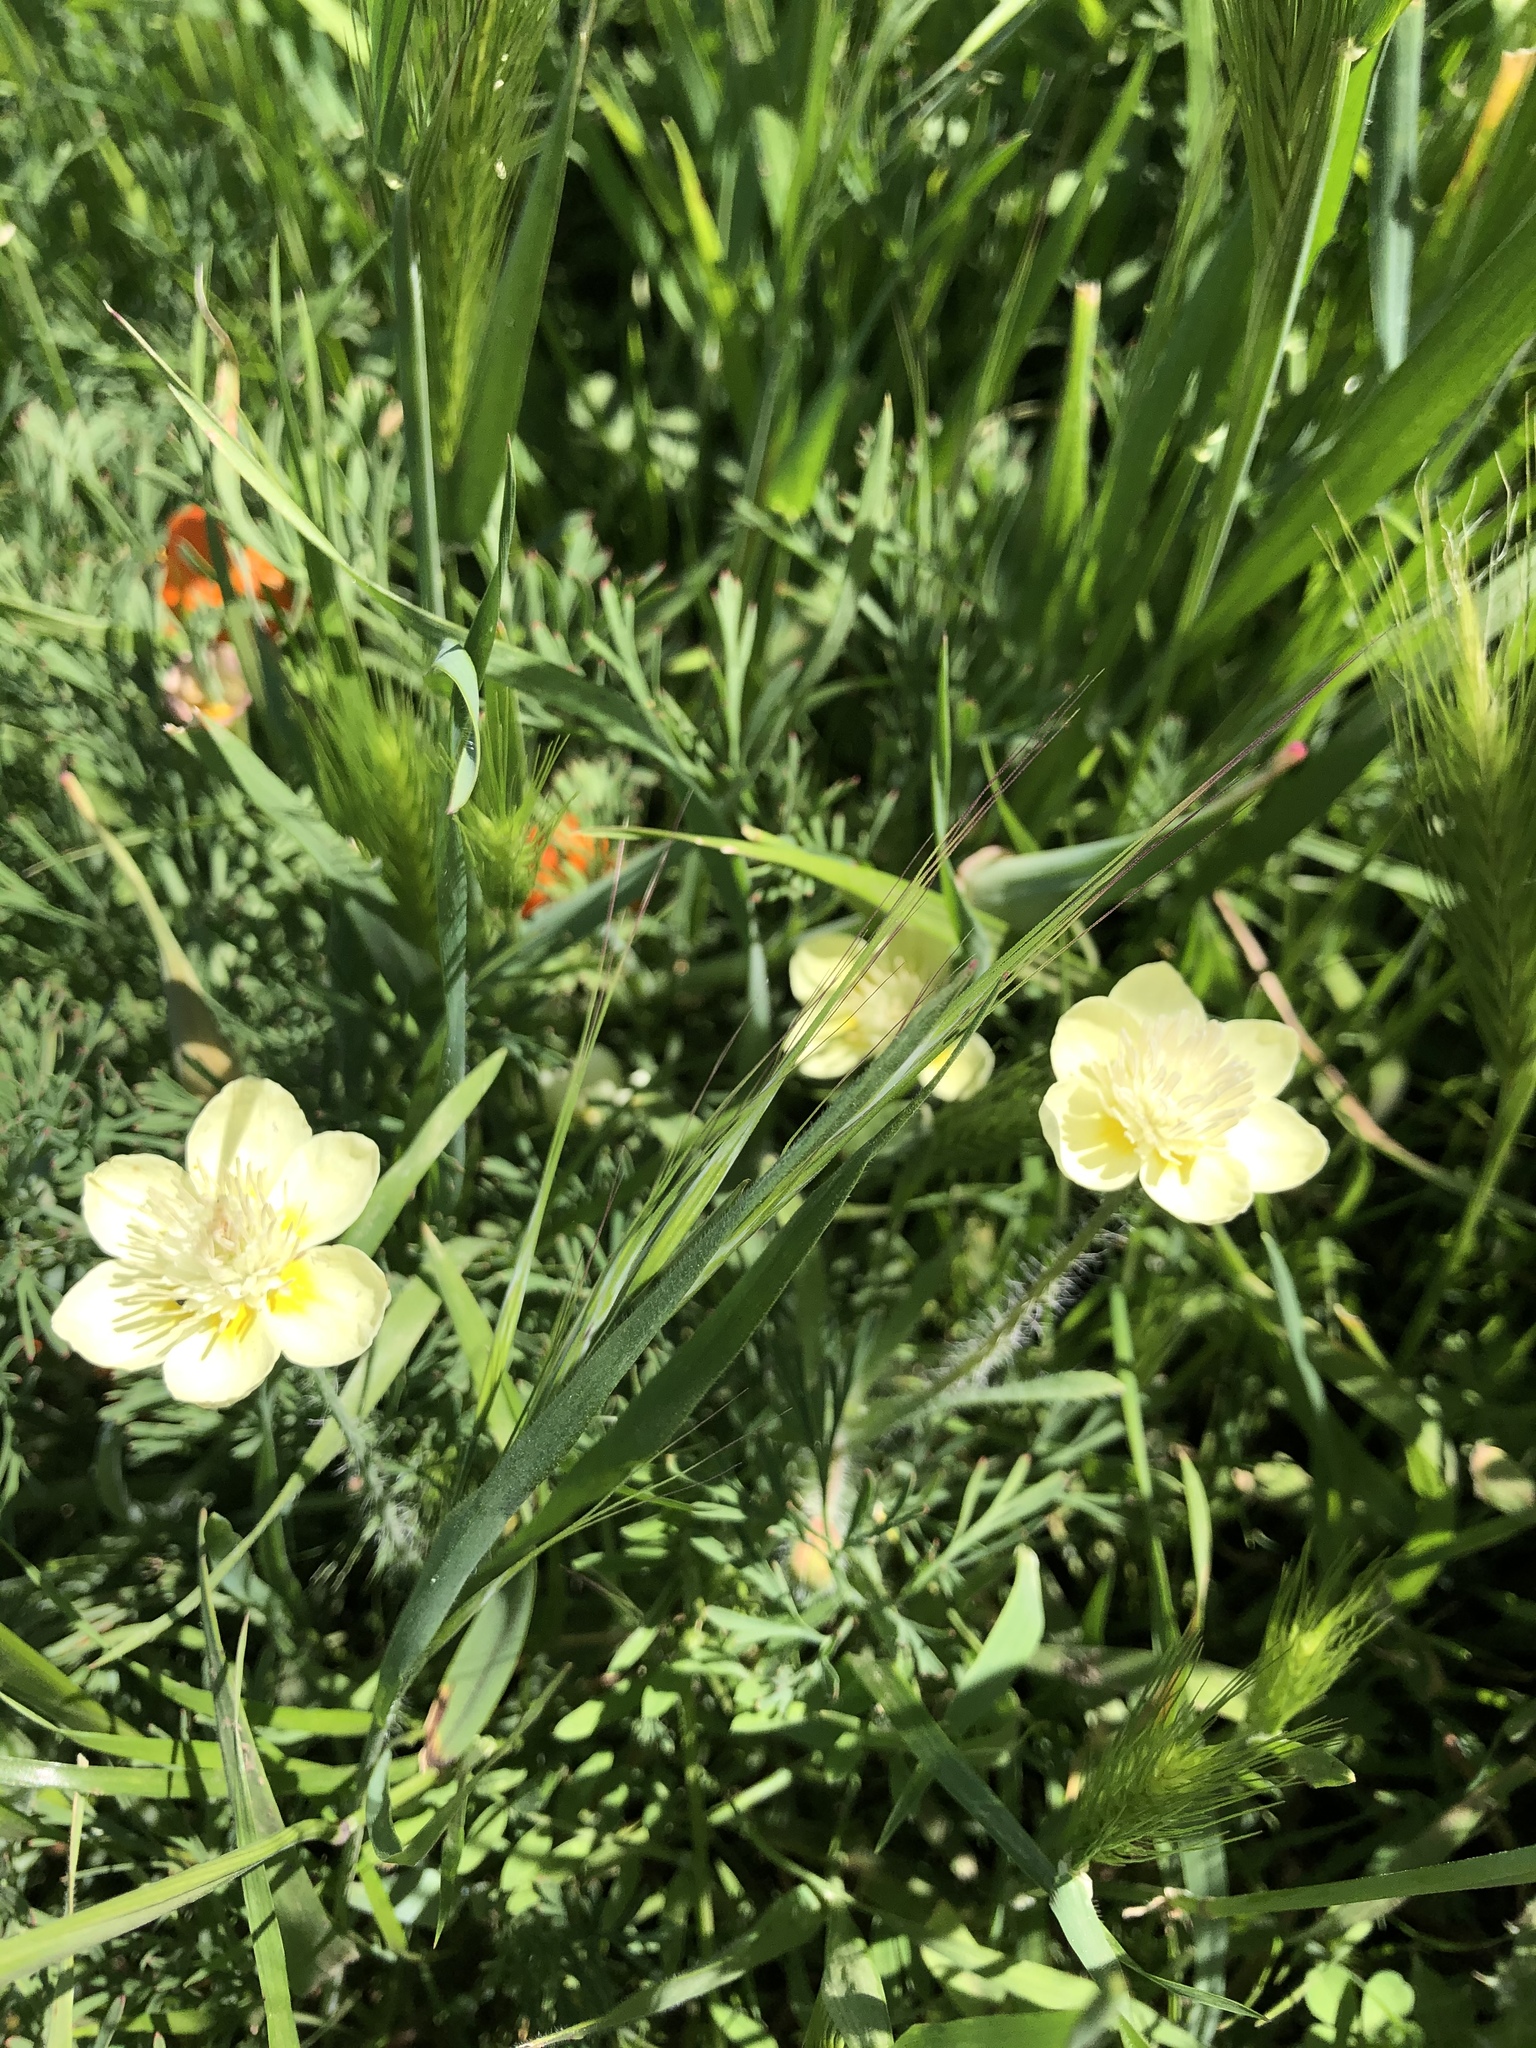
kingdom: Plantae
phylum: Tracheophyta
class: Magnoliopsida
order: Ranunculales
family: Papaveraceae
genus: Platystemon
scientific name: Platystemon californicus
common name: Cream-cups
